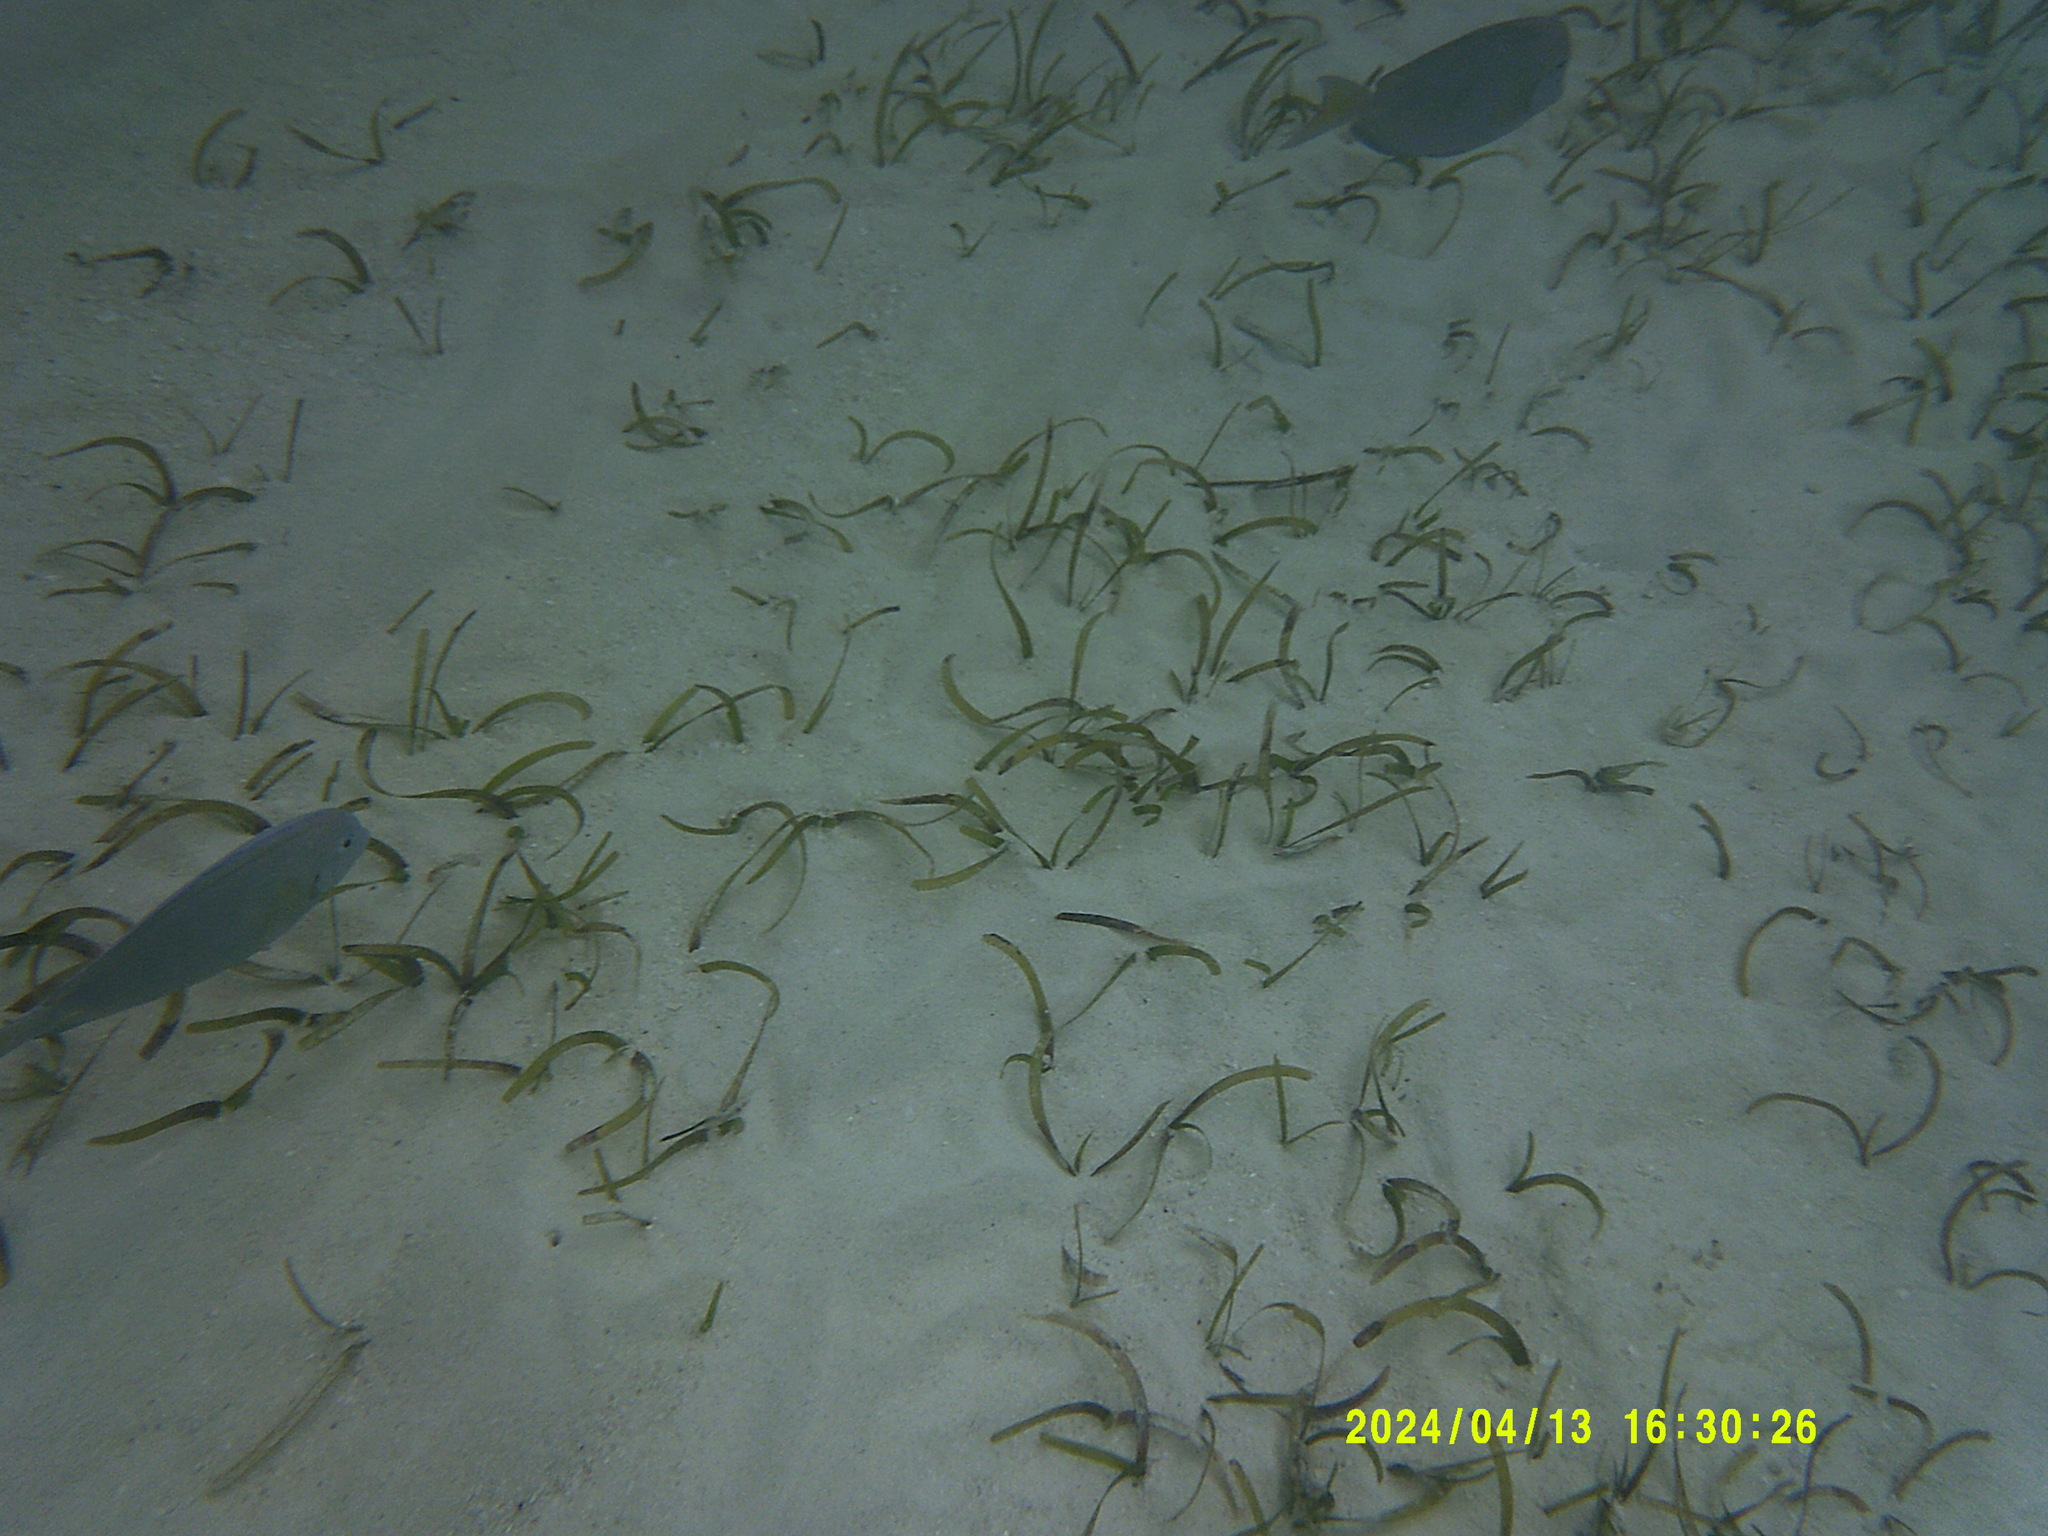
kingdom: Animalia
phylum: Chordata
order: Perciformes
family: Acanthuridae
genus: Acanthurus
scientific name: Acanthurus coeruleus
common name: Blue tang
